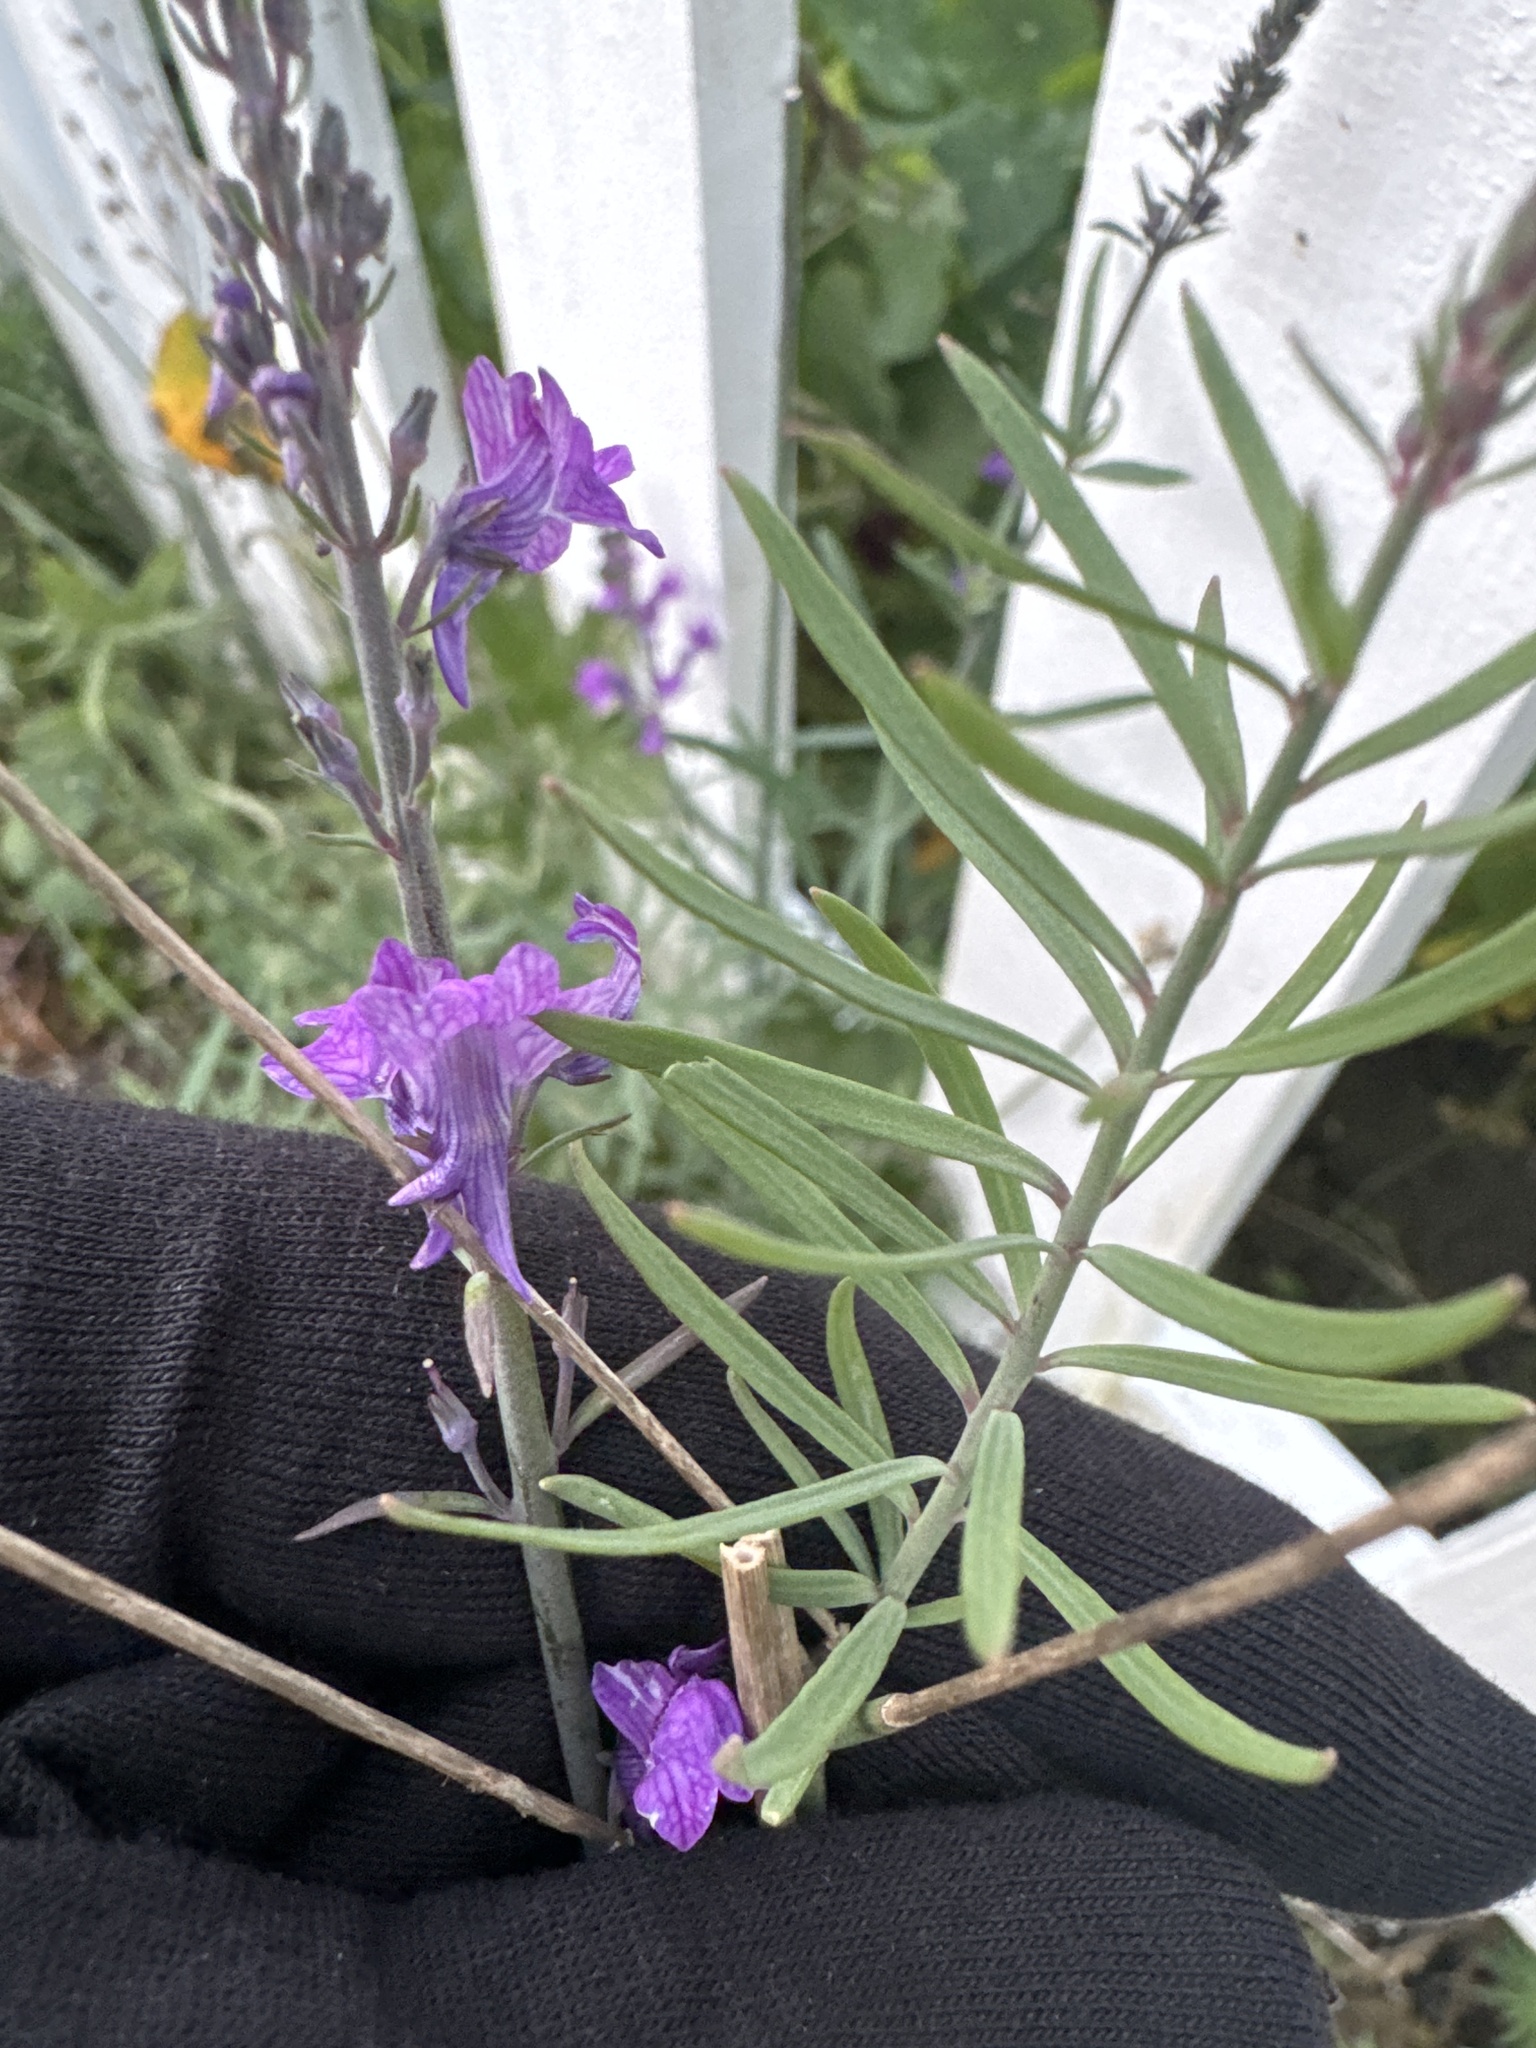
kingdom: Plantae
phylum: Tracheophyta
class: Magnoliopsida
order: Lamiales
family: Plantaginaceae
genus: Linaria
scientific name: Linaria purpurea
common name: Purple toadflax
